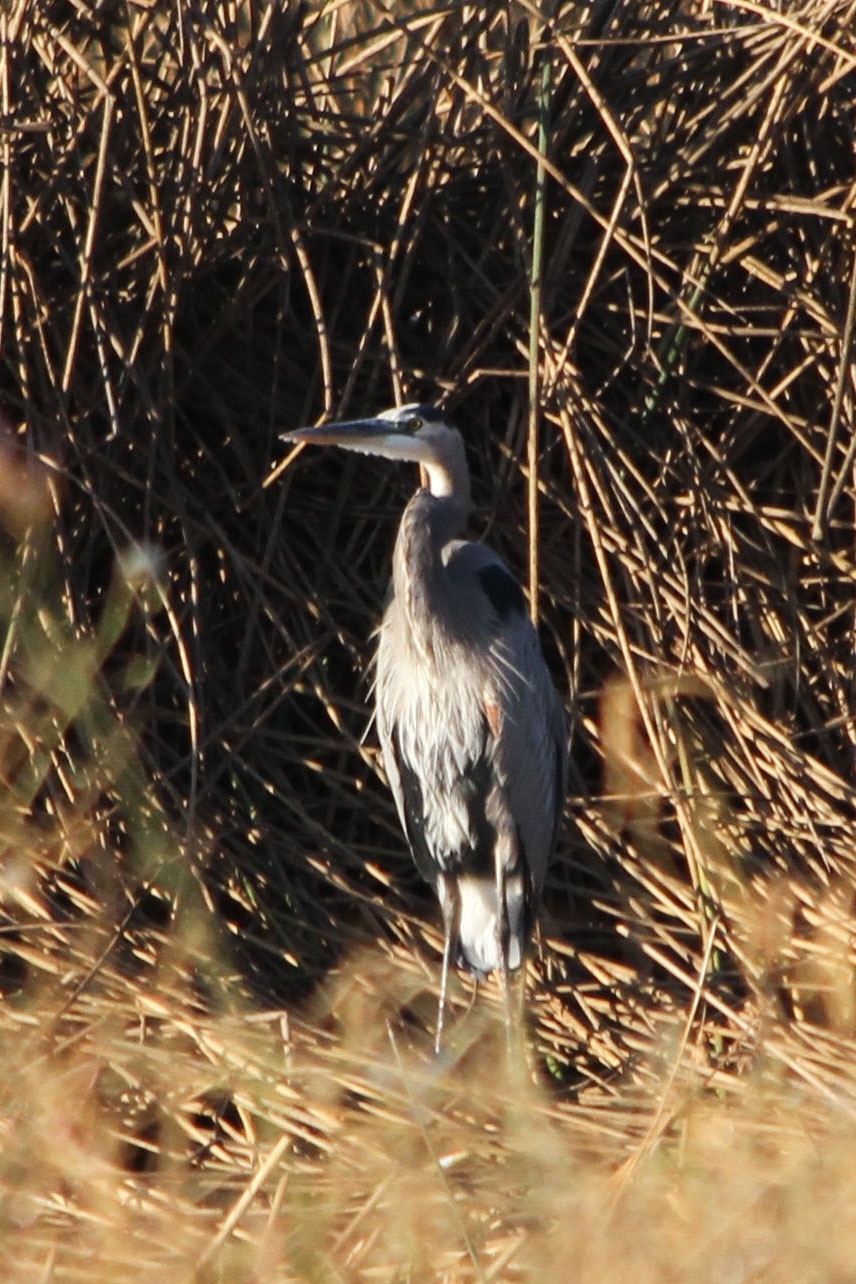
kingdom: Animalia
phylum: Chordata
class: Aves
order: Pelecaniformes
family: Ardeidae
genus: Ardea
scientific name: Ardea herodias
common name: Great blue heron
